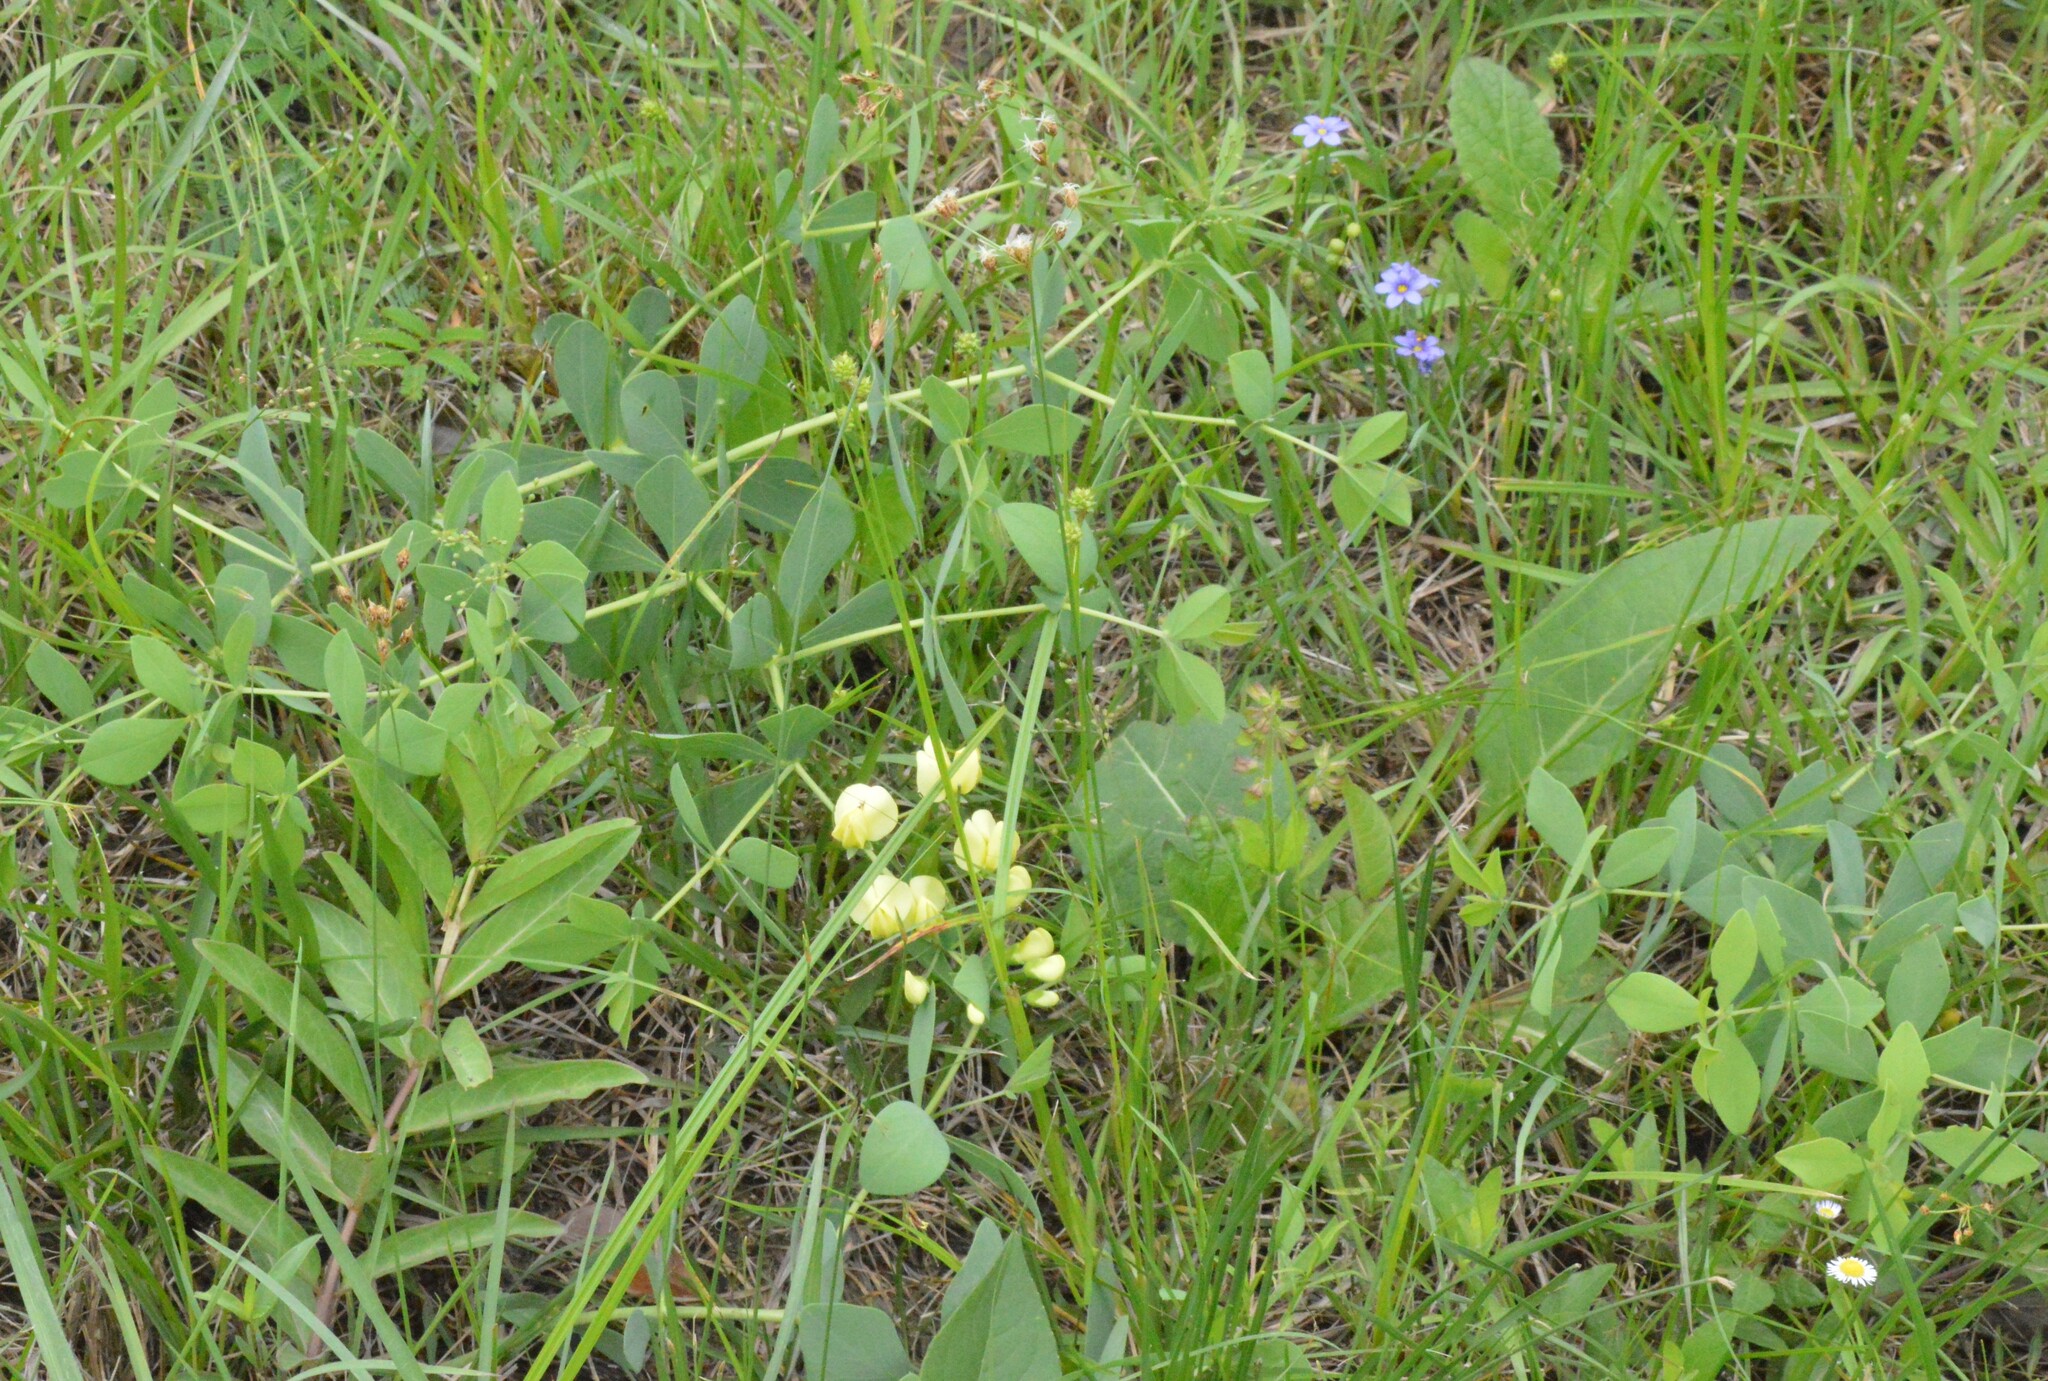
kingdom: Plantae
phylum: Tracheophyta
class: Magnoliopsida
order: Fabales
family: Fabaceae
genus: Baptisia
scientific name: Baptisia bracteata
